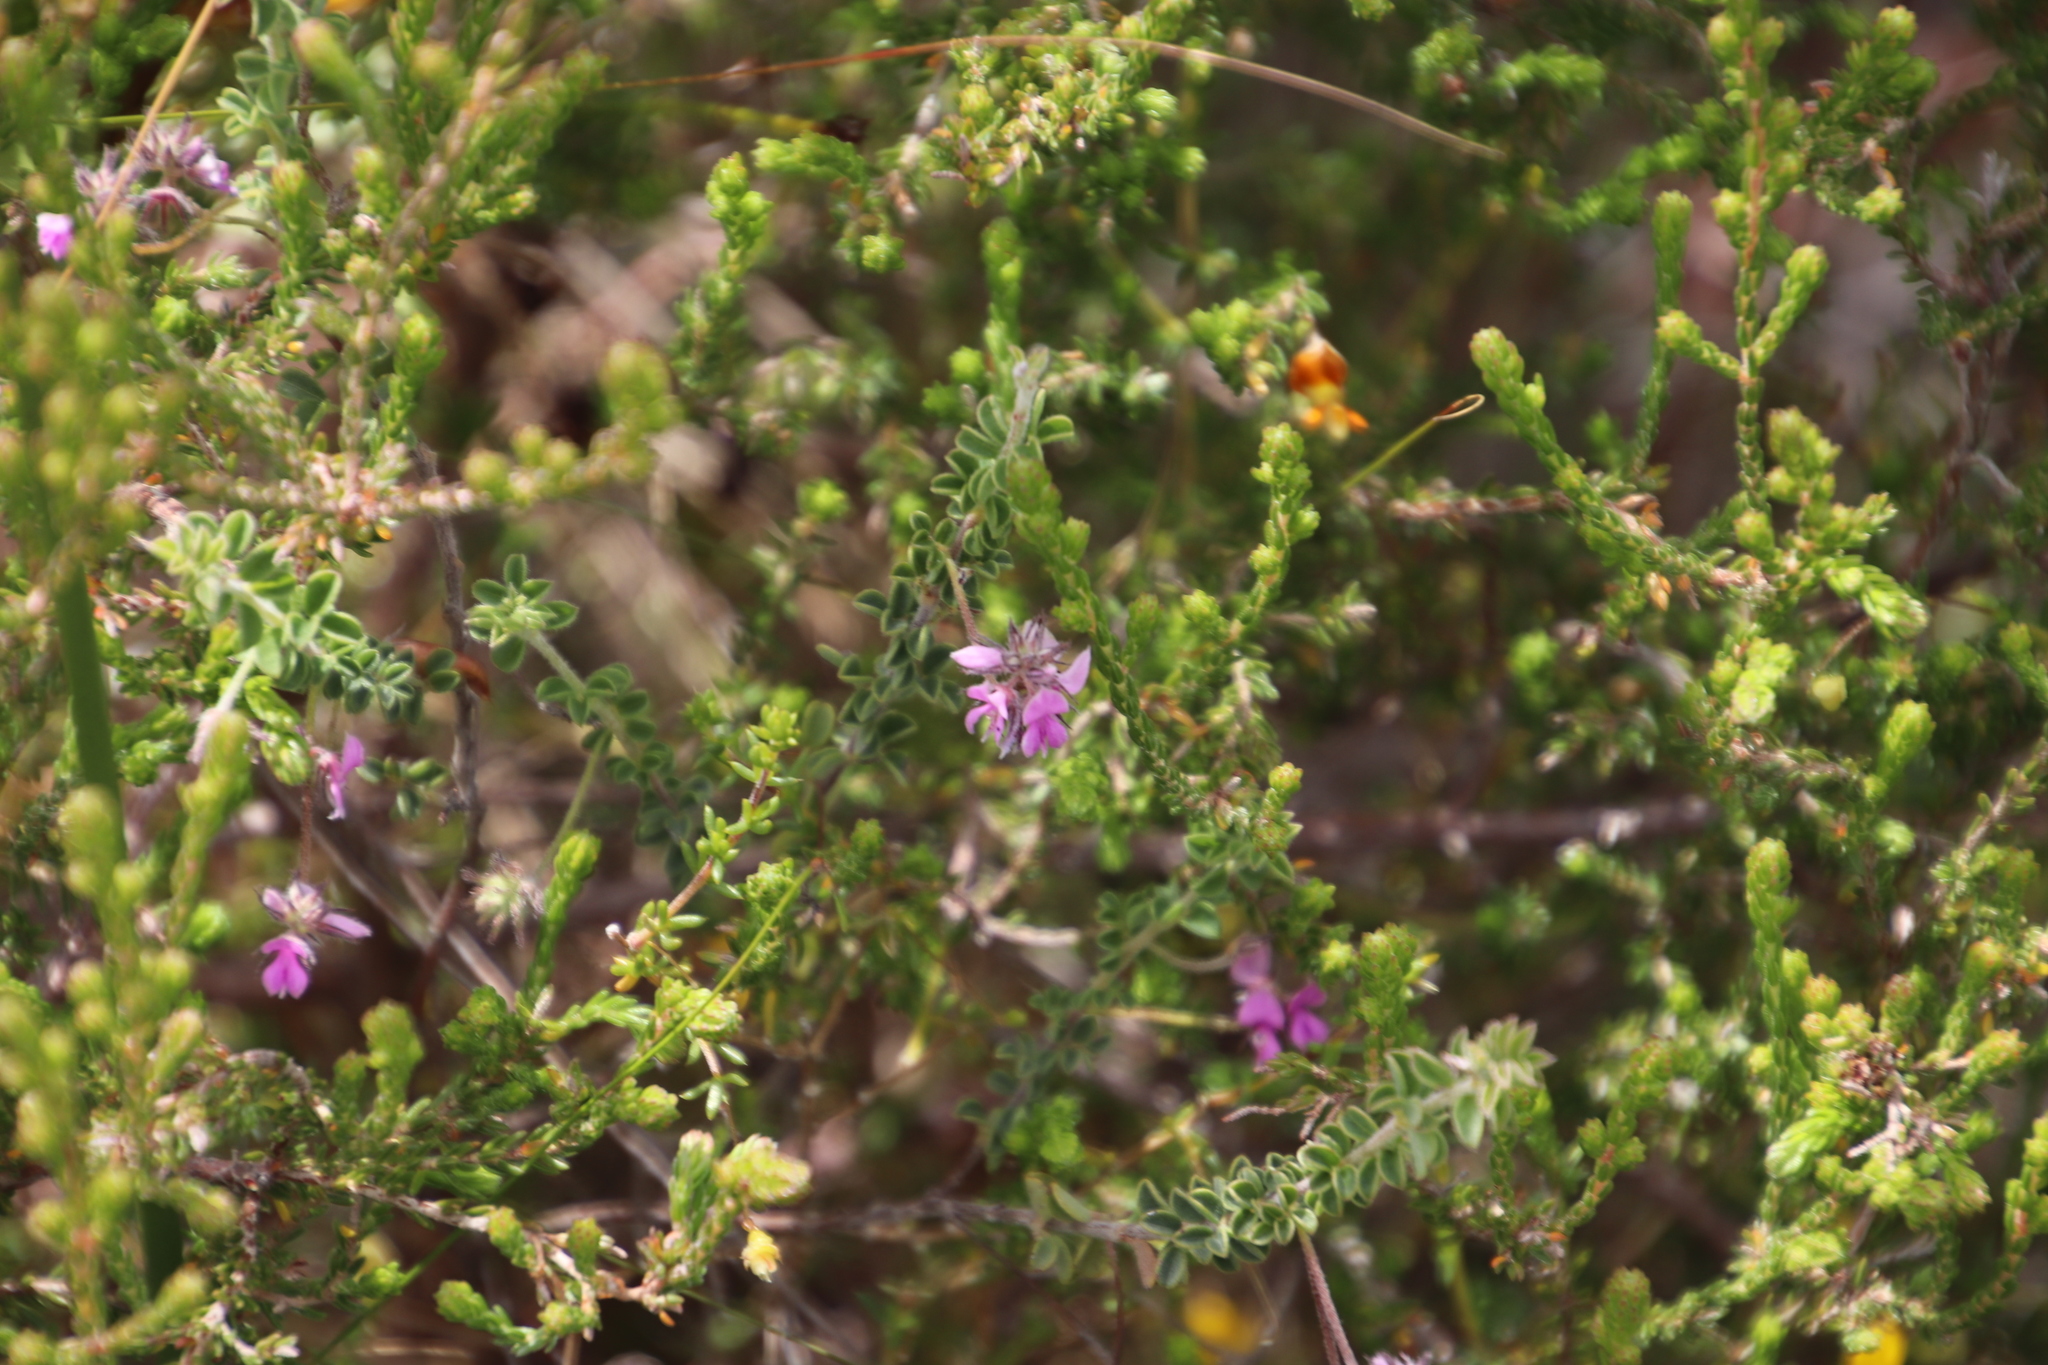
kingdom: Plantae
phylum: Tracheophyta
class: Magnoliopsida
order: Fabales
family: Fabaceae
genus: Indigofera
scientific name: Indigofera alopecuroides
